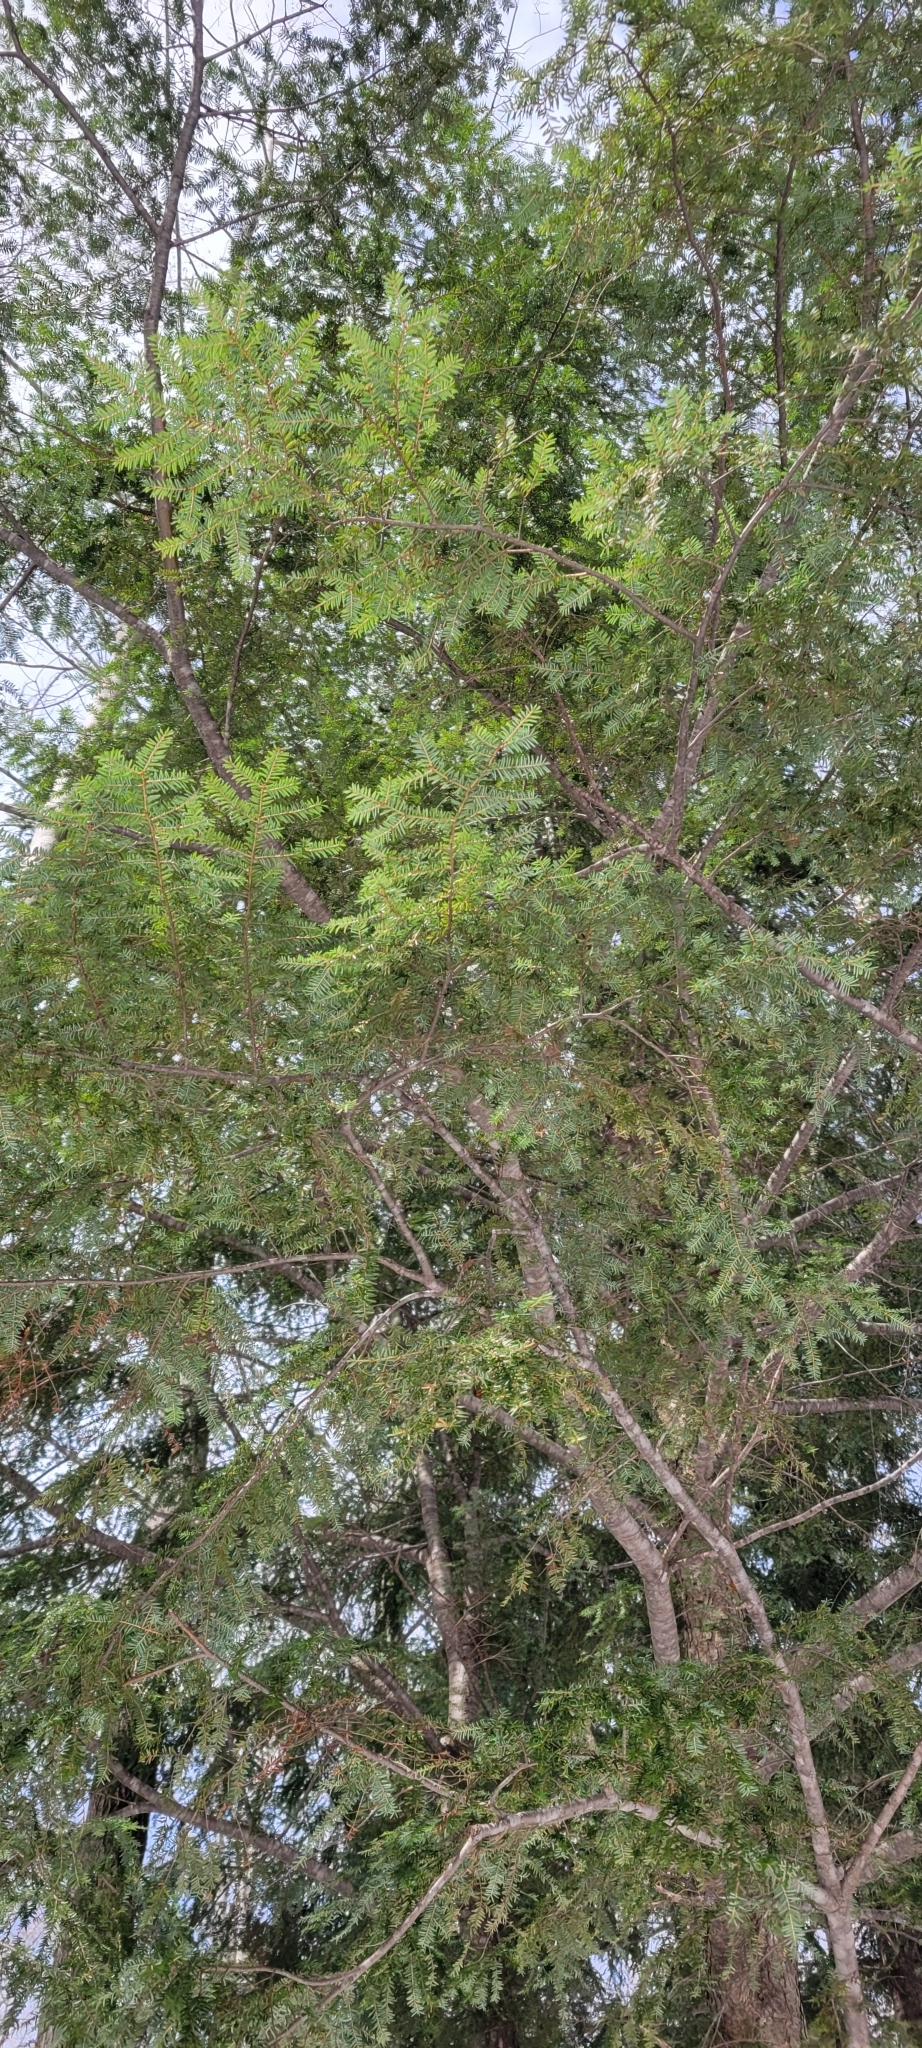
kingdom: Plantae
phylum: Tracheophyta
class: Pinopsida
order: Pinales
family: Pinaceae
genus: Tsuga
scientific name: Tsuga canadensis
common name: Eastern hemlock
